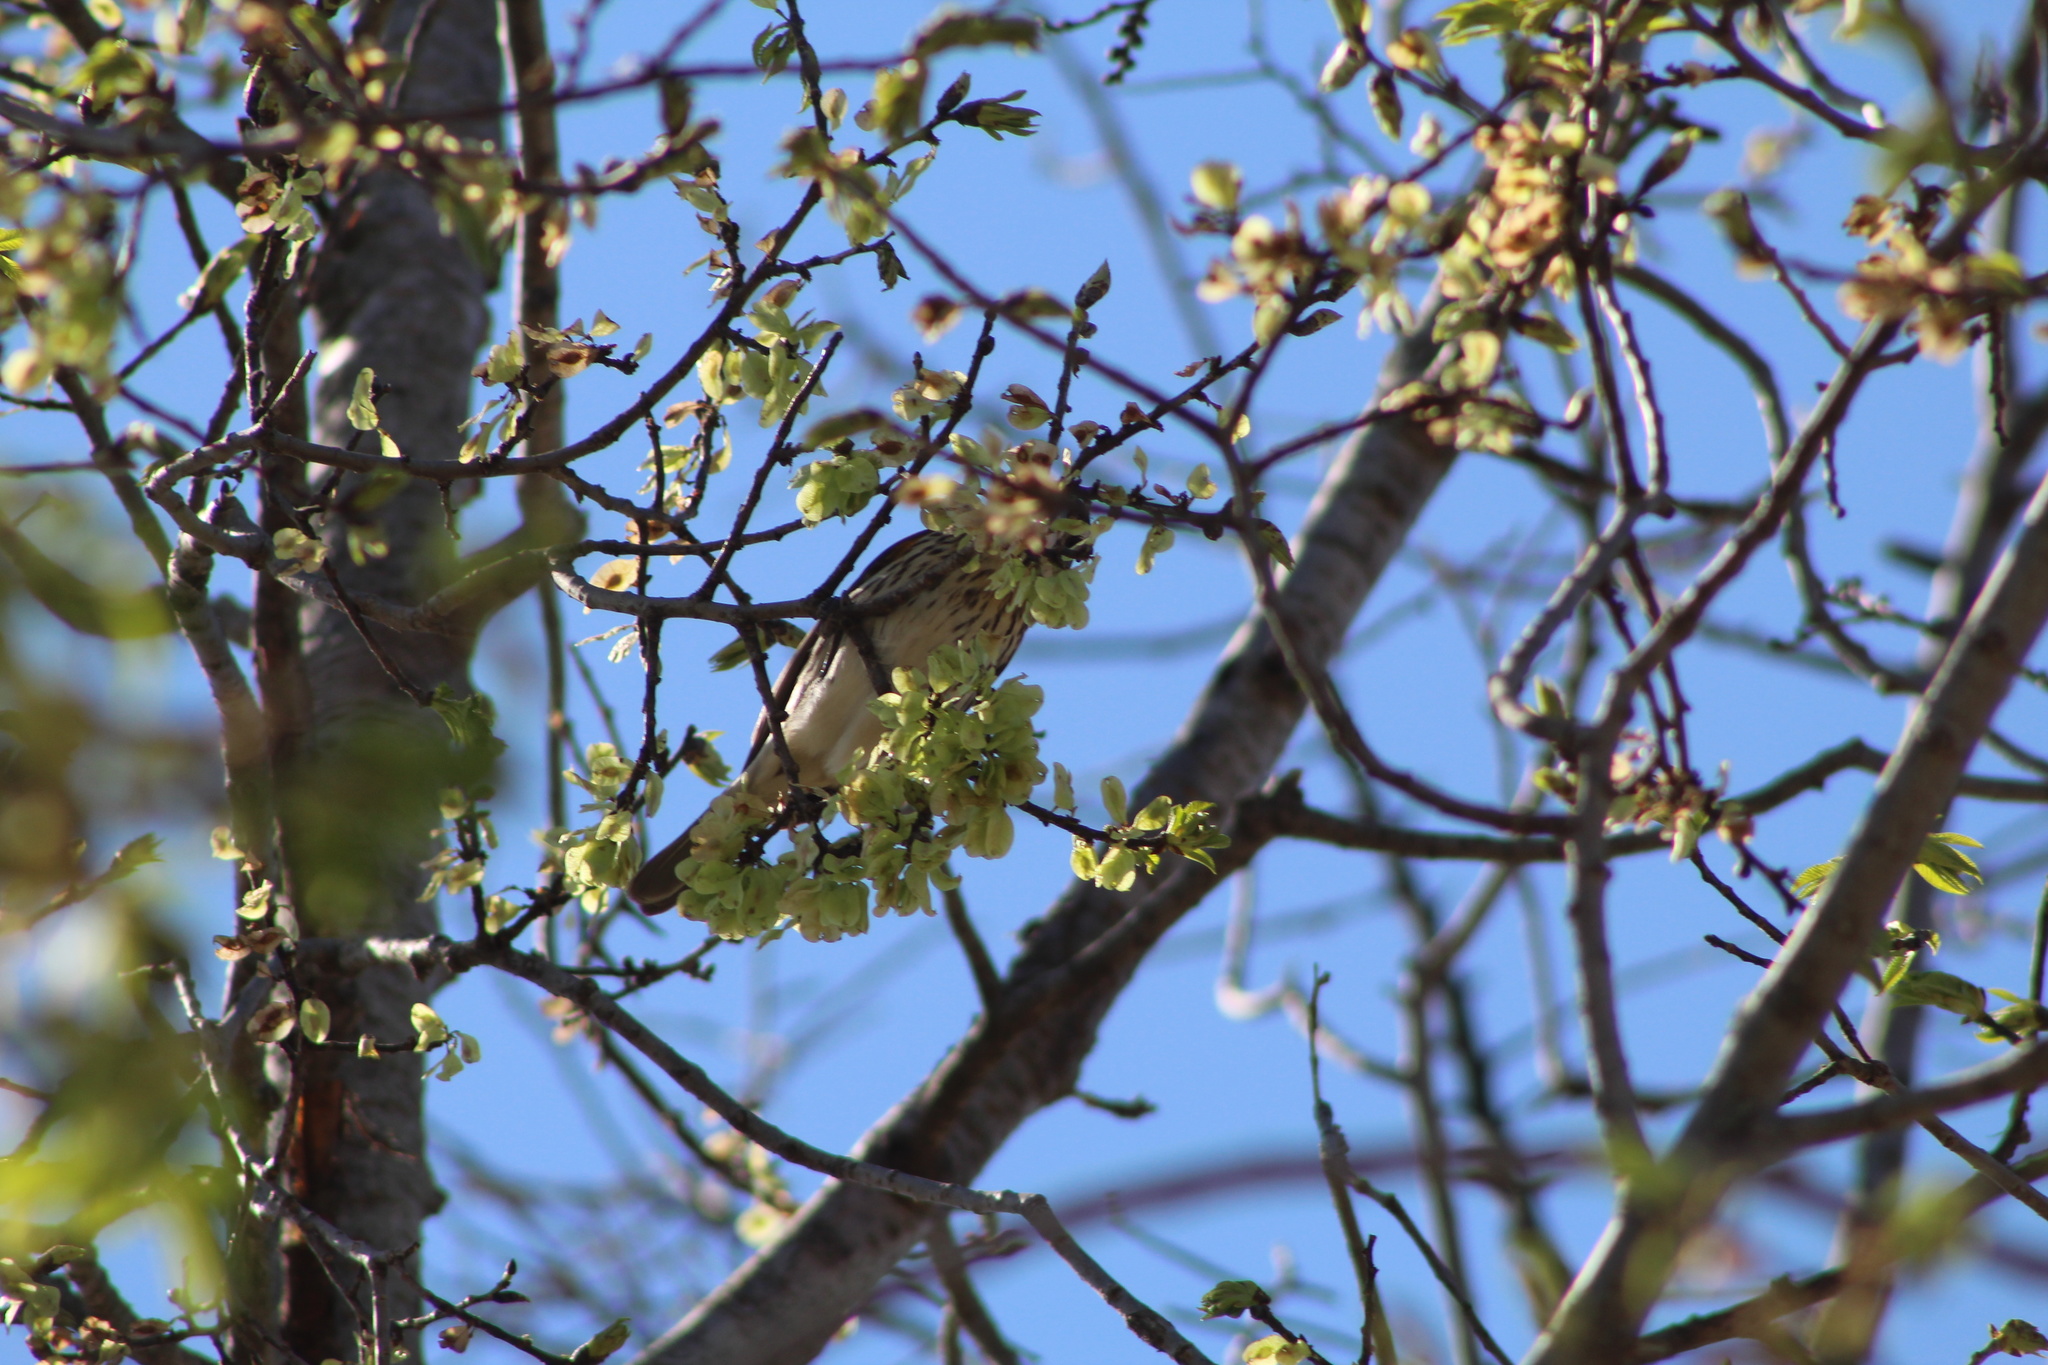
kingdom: Animalia
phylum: Chordata
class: Aves
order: Passeriformes
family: Cardinalidae
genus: Pheucticus
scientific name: Pheucticus ludovicianus
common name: Rose-breasted grosbeak
